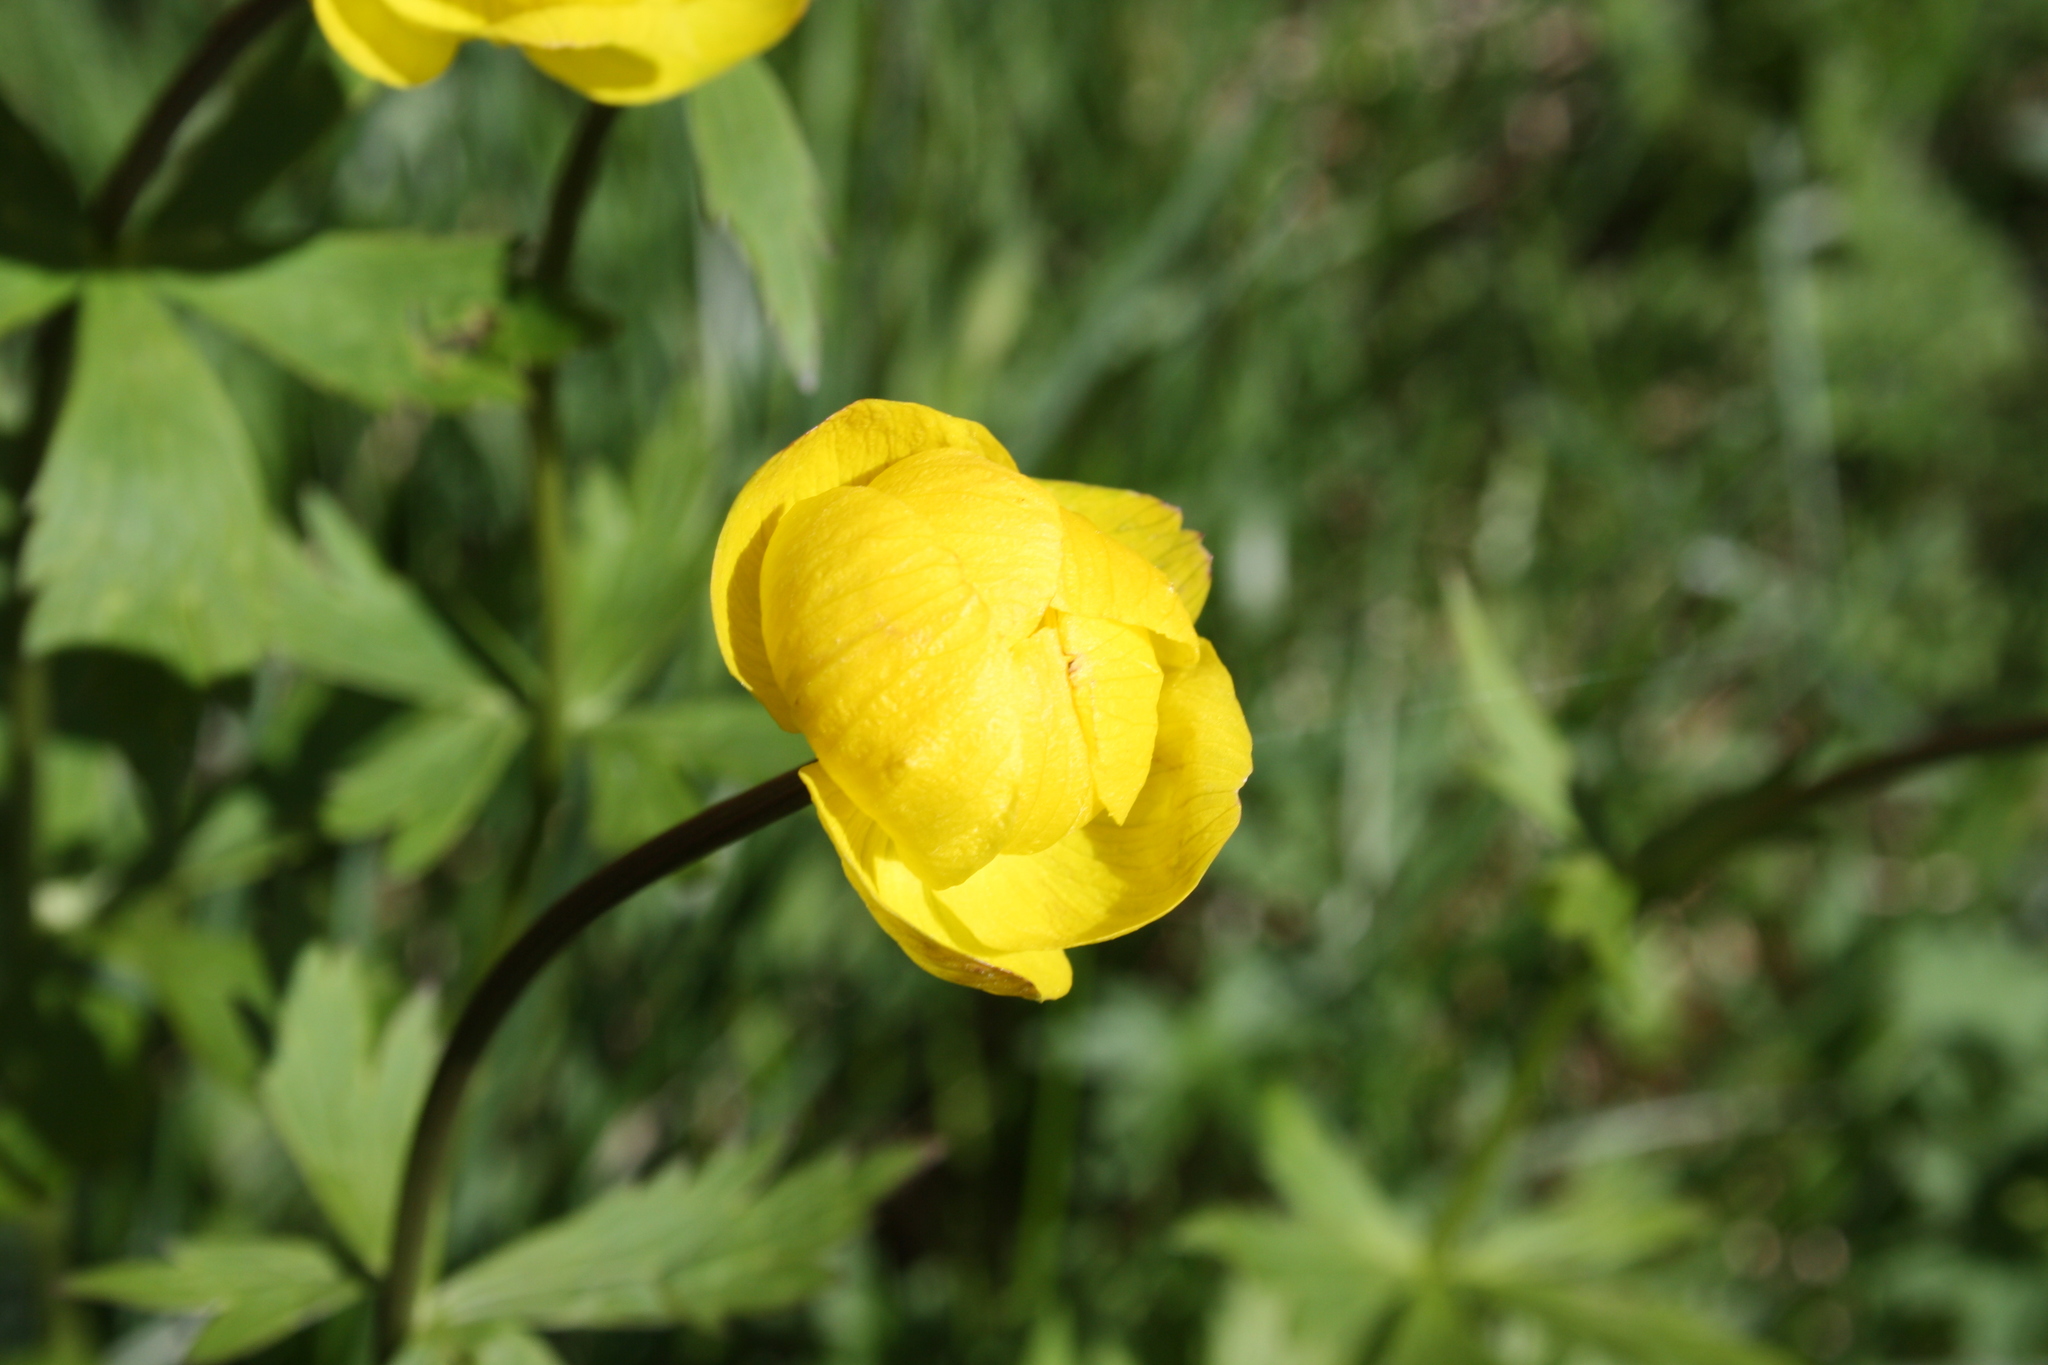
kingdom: Plantae
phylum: Tracheophyta
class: Magnoliopsida
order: Ranunculales
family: Ranunculaceae
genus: Trollius
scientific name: Trollius europaeus
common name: European globeflower
